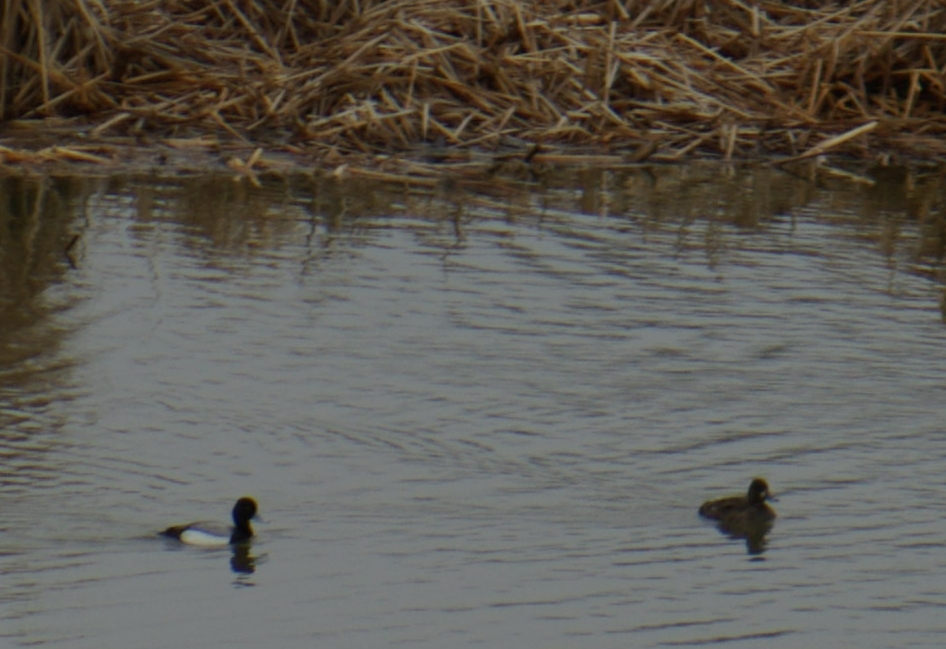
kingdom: Animalia
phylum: Chordata
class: Aves
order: Anseriformes
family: Anatidae
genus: Aythya
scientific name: Aythya affinis
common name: Lesser scaup
